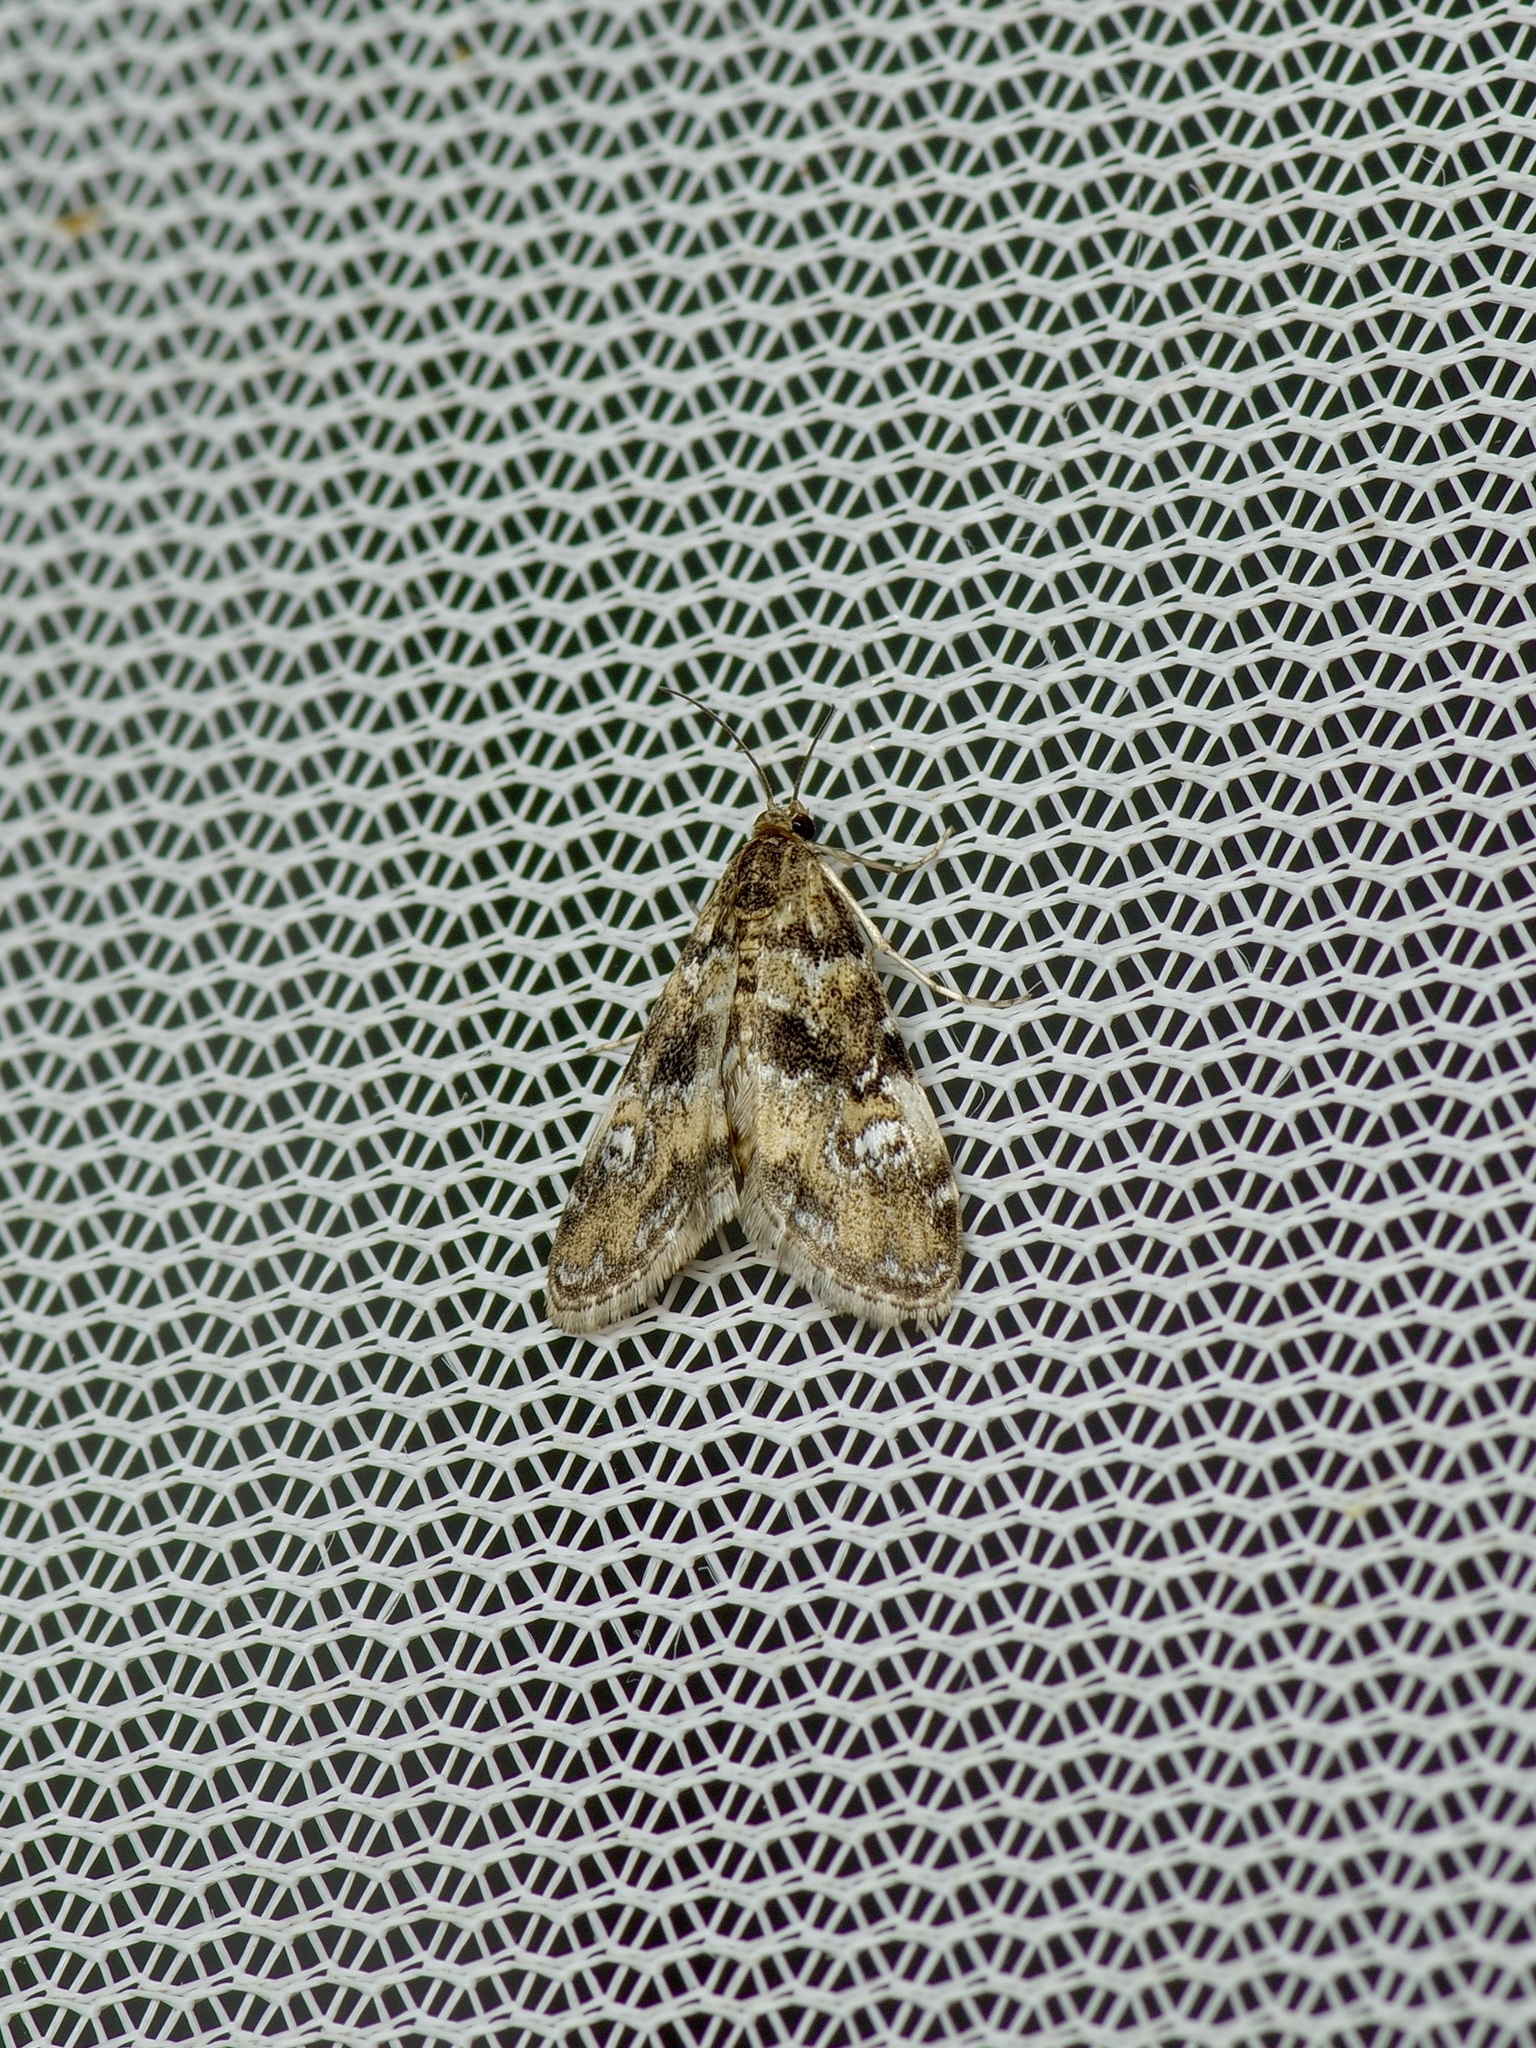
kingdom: Animalia
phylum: Arthropoda
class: Insecta
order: Lepidoptera
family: Crambidae
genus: Elophila
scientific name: Elophila obliteralis
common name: Waterlily leafcutter moth
